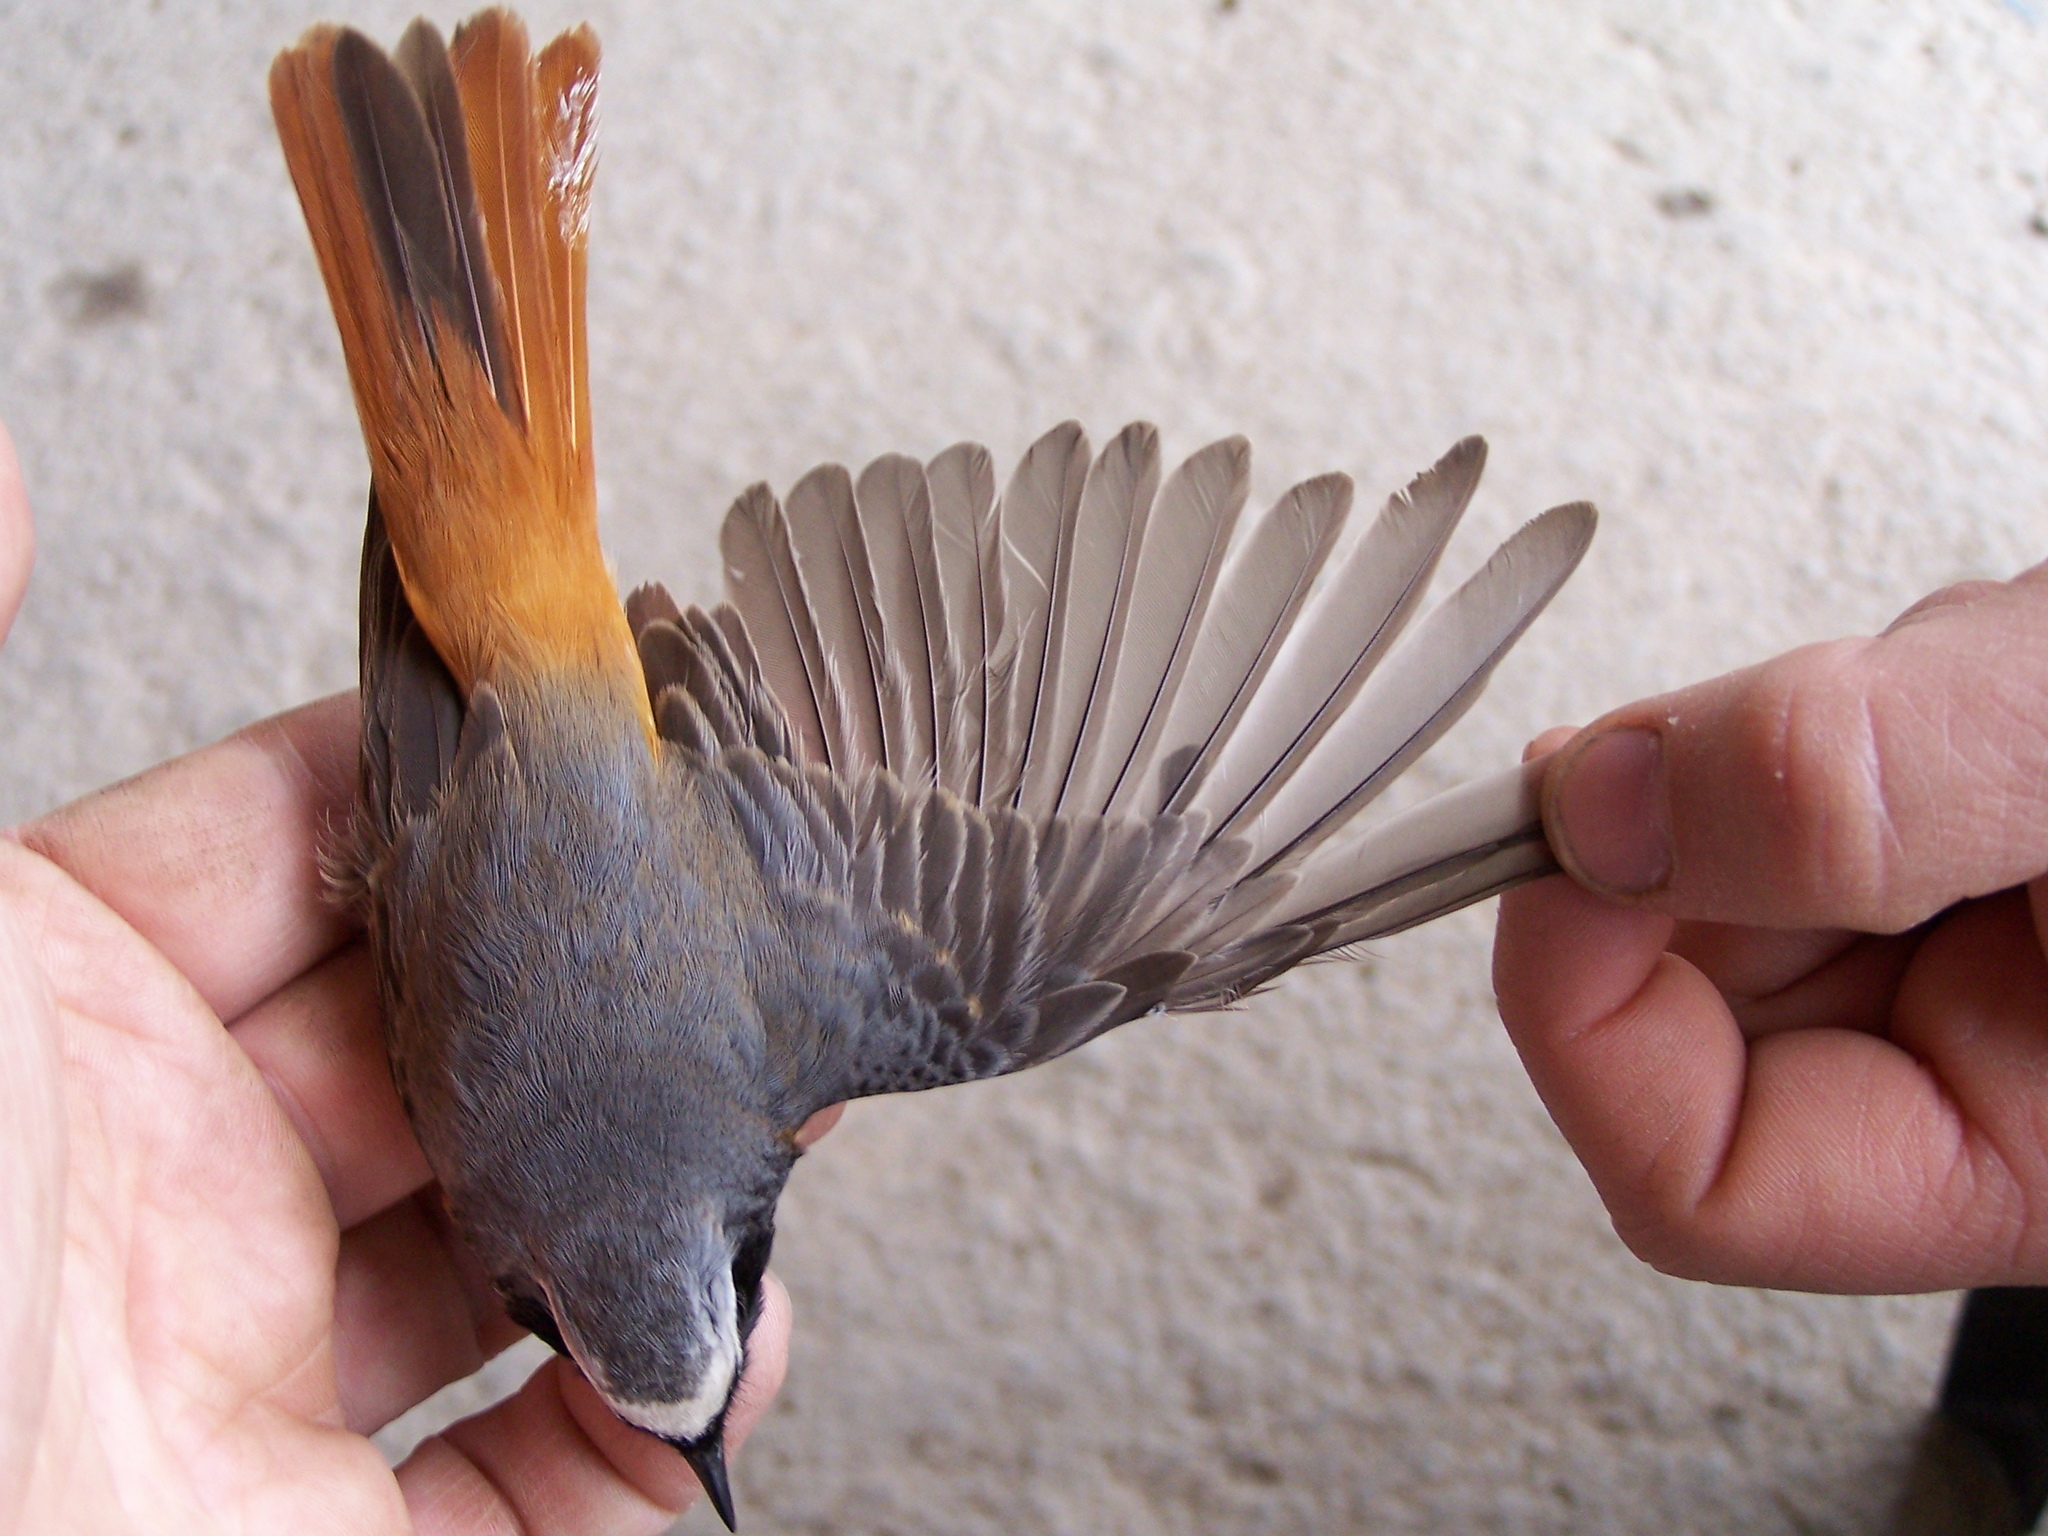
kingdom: Animalia
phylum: Chordata
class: Aves
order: Passeriformes
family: Muscicapidae
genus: Phoenicurus
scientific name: Phoenicurus phoenicurus
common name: Common redstart
